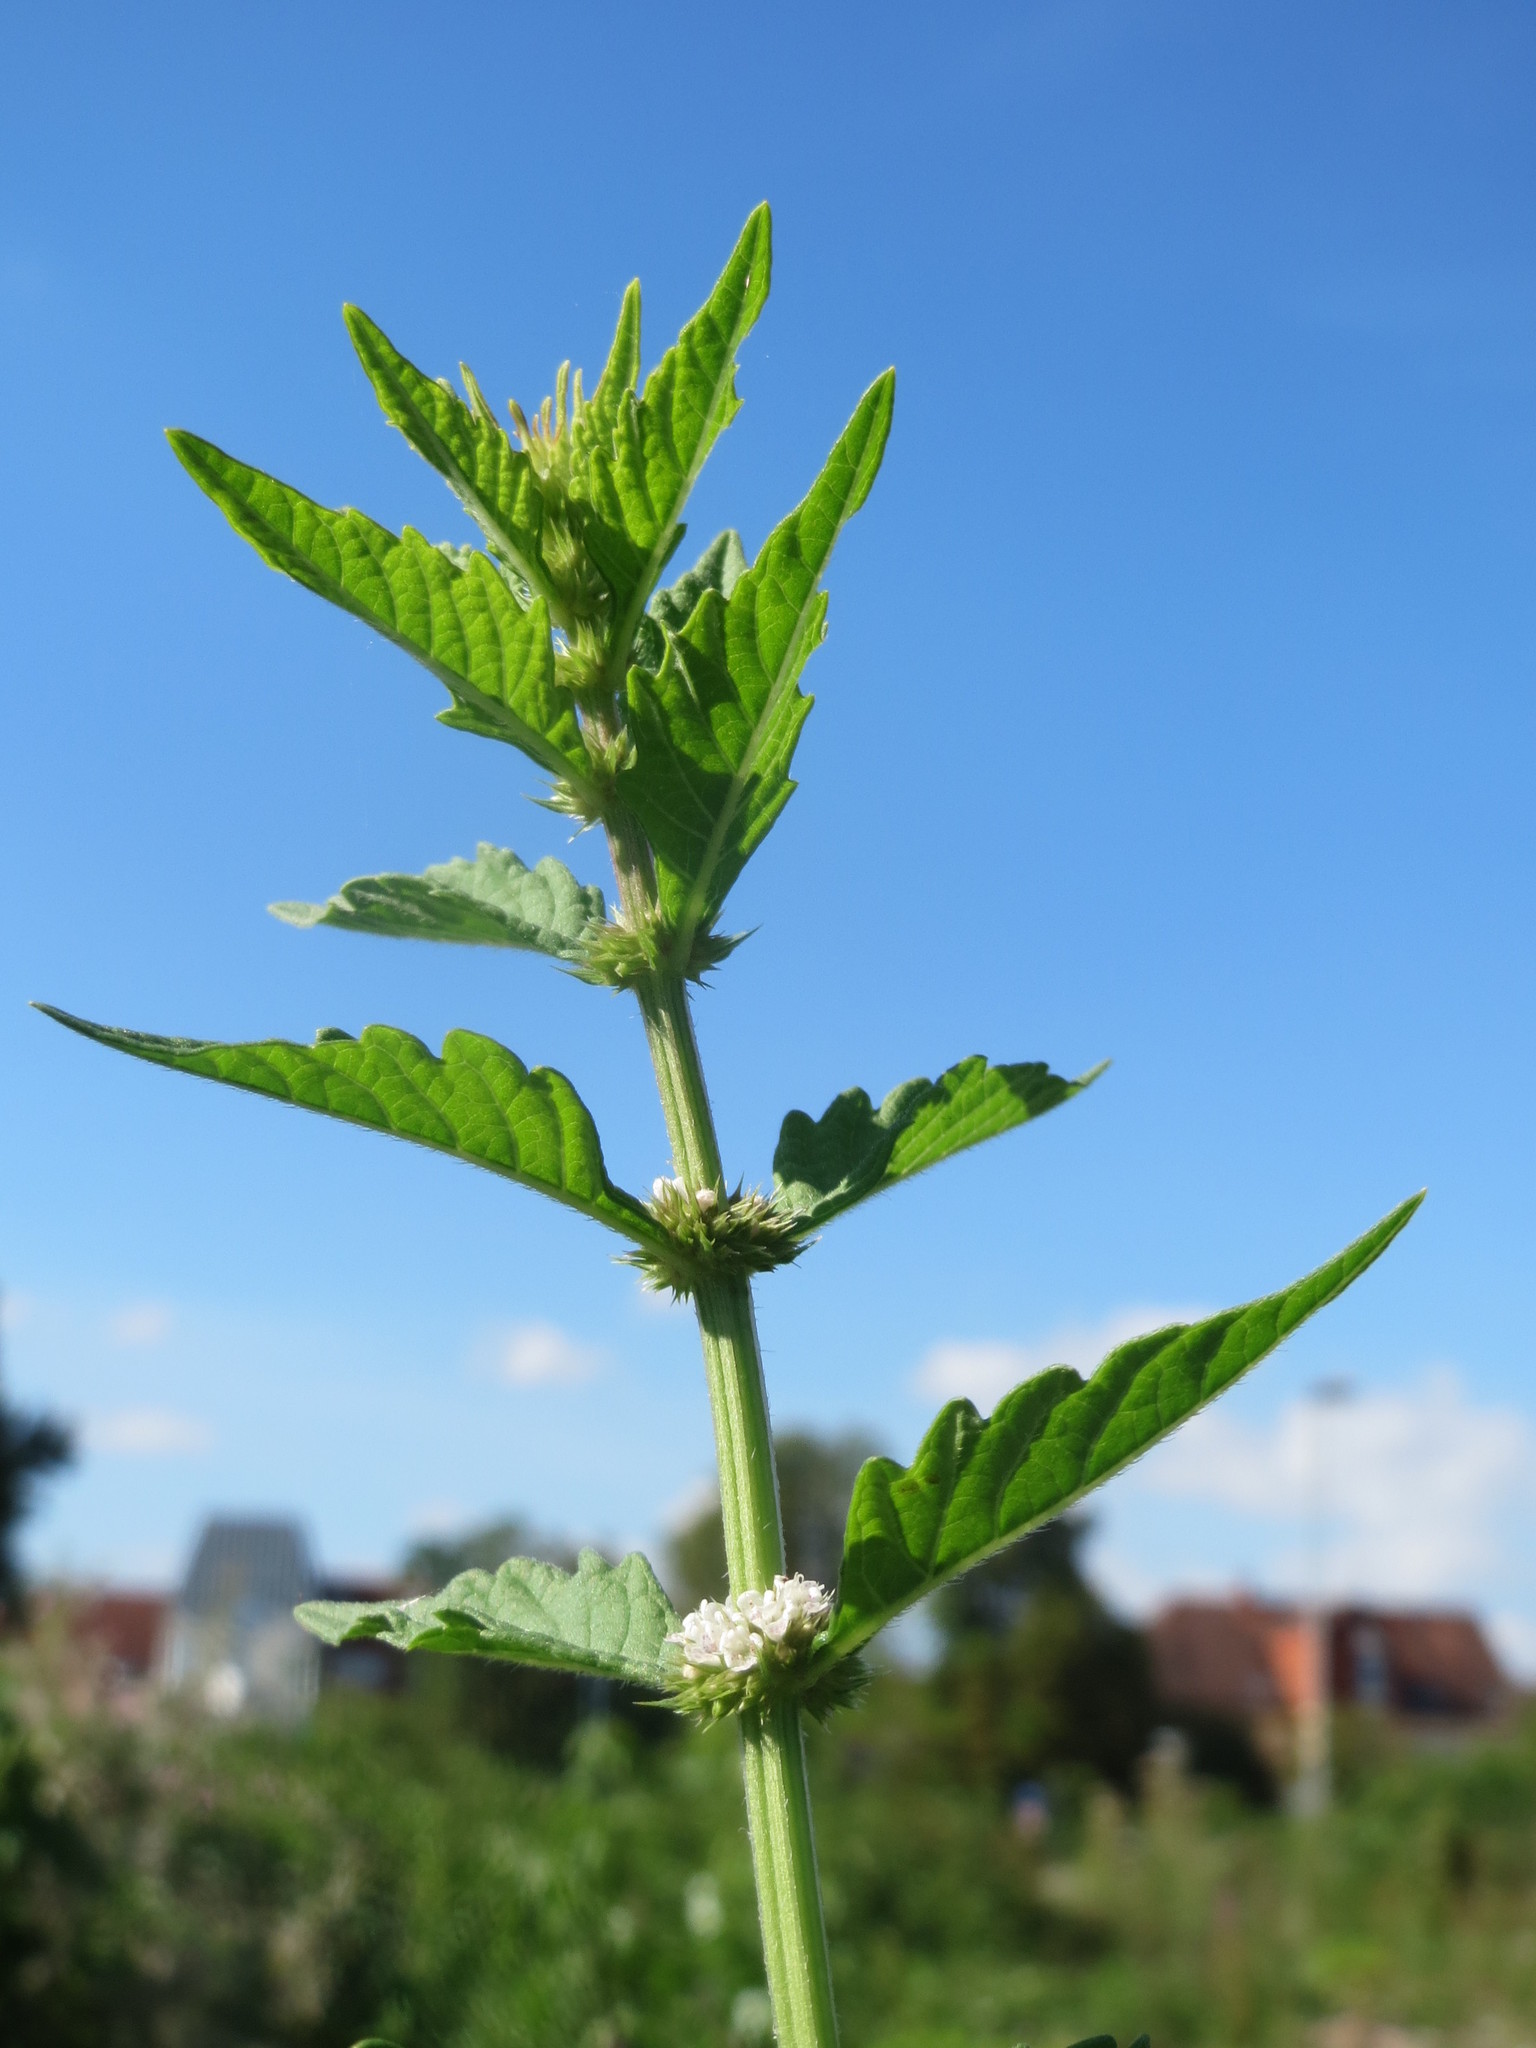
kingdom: Plantae
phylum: Tracheophyta
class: Magnoliopsida
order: Lamiales
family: Lamiaceae
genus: Lycopus
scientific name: Lycopus europaeus
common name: European bugleweed
